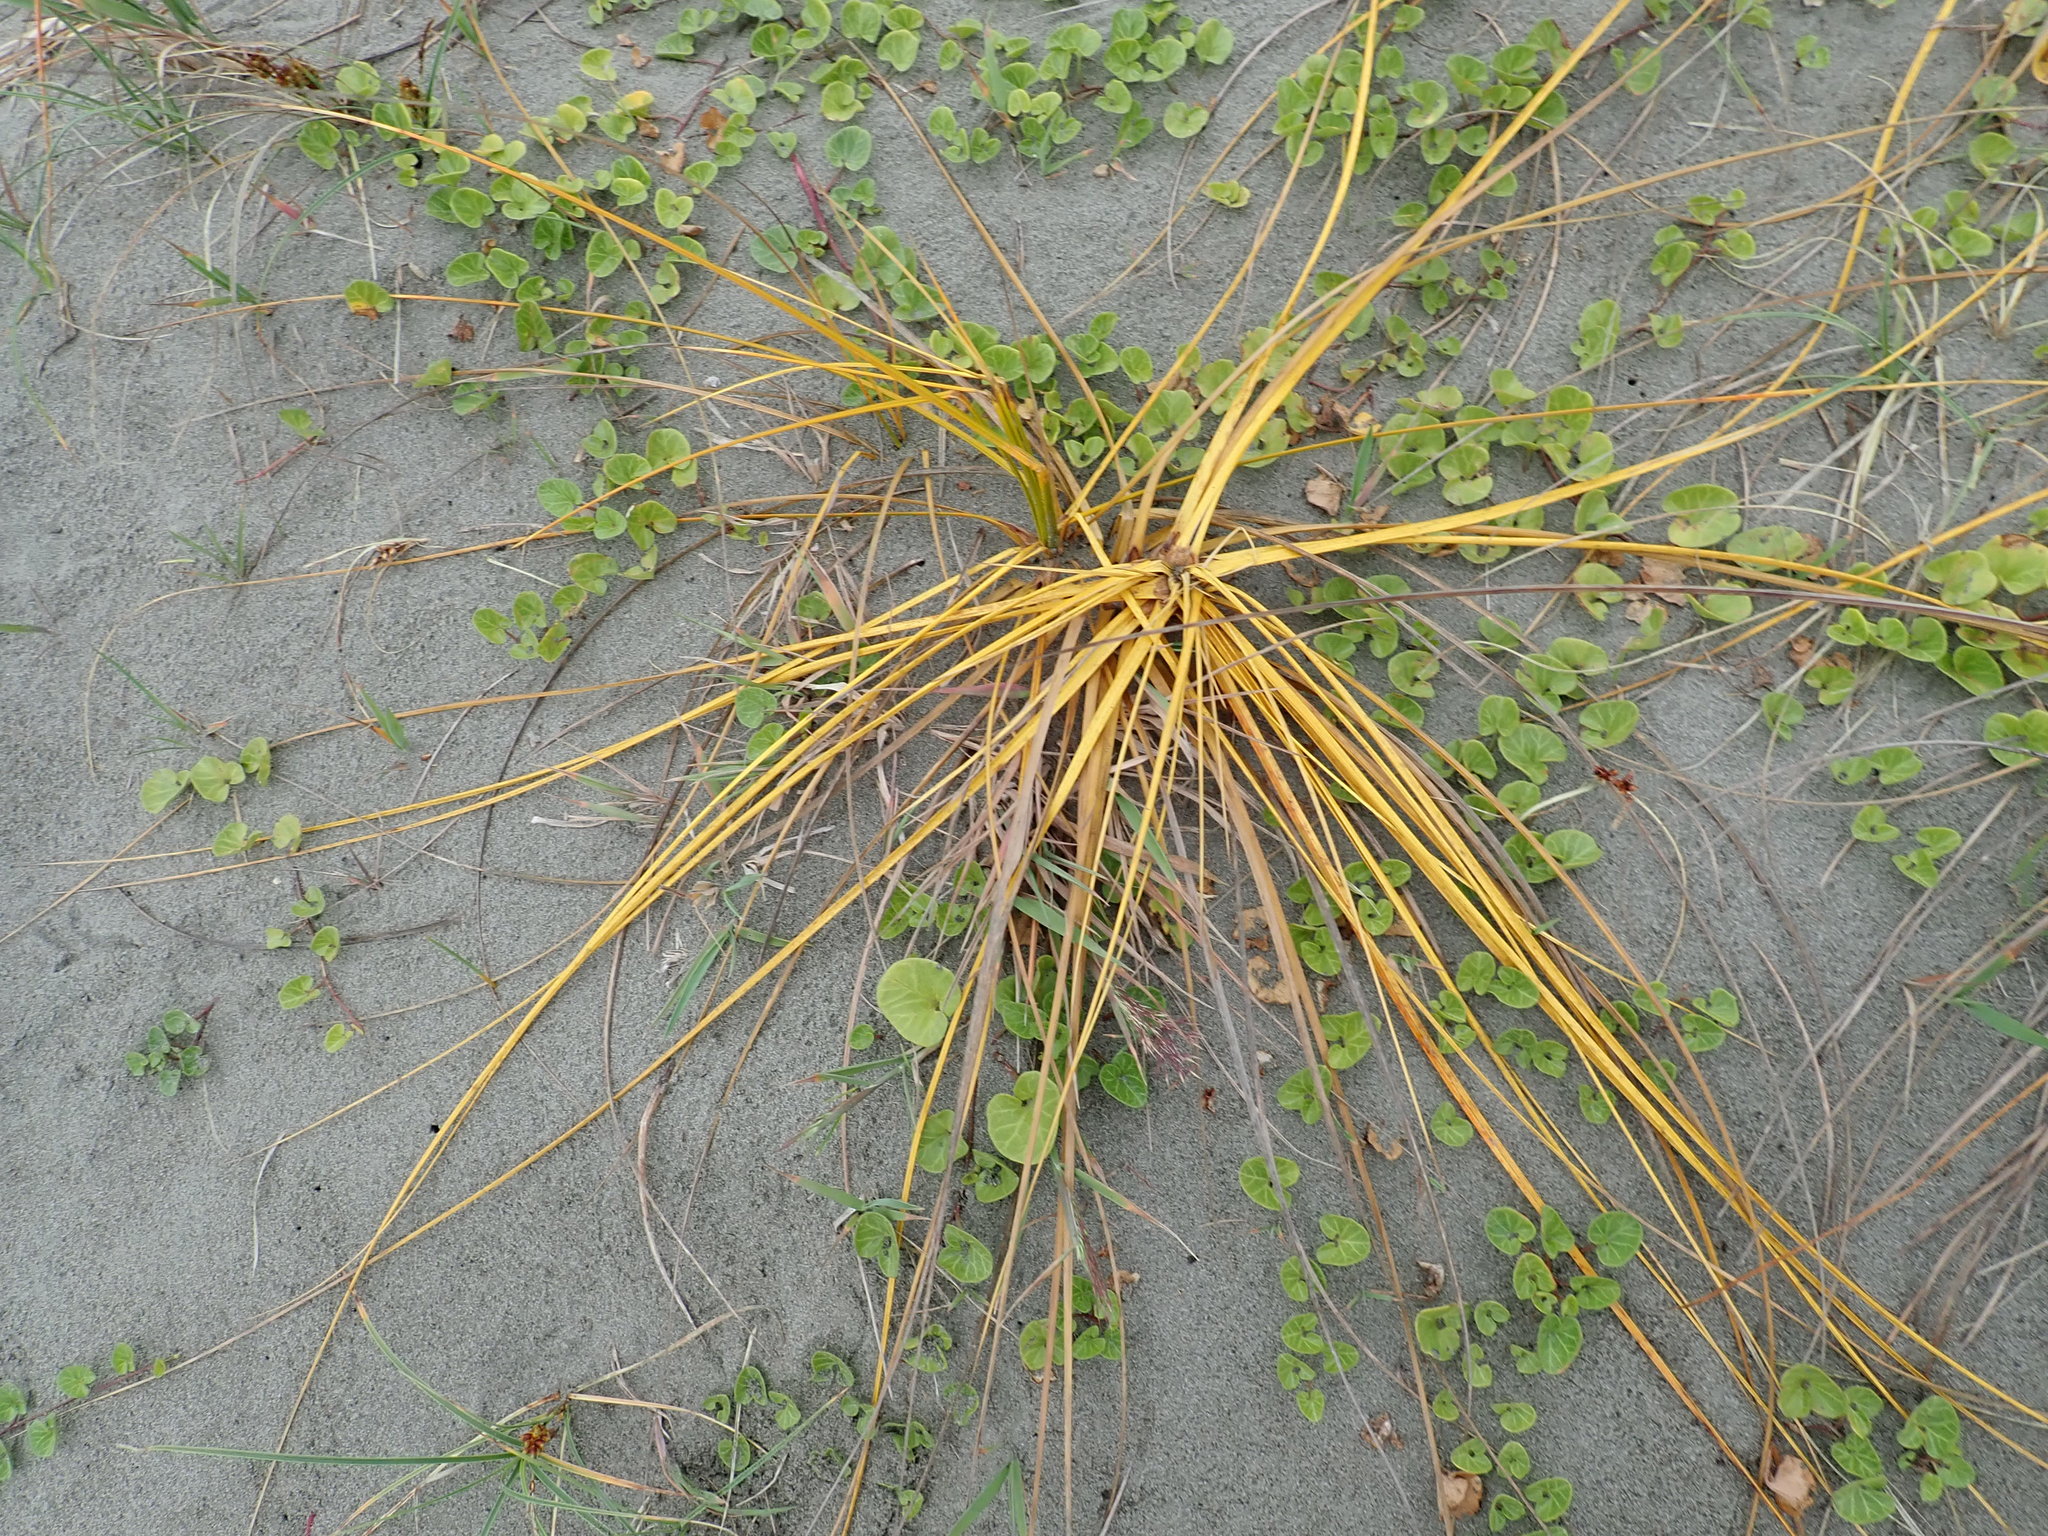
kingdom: Plantae
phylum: Tracheophyta
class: Liliopsida
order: Poales
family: Cyperaceae
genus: Ficinia
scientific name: Ficinia spiralis
